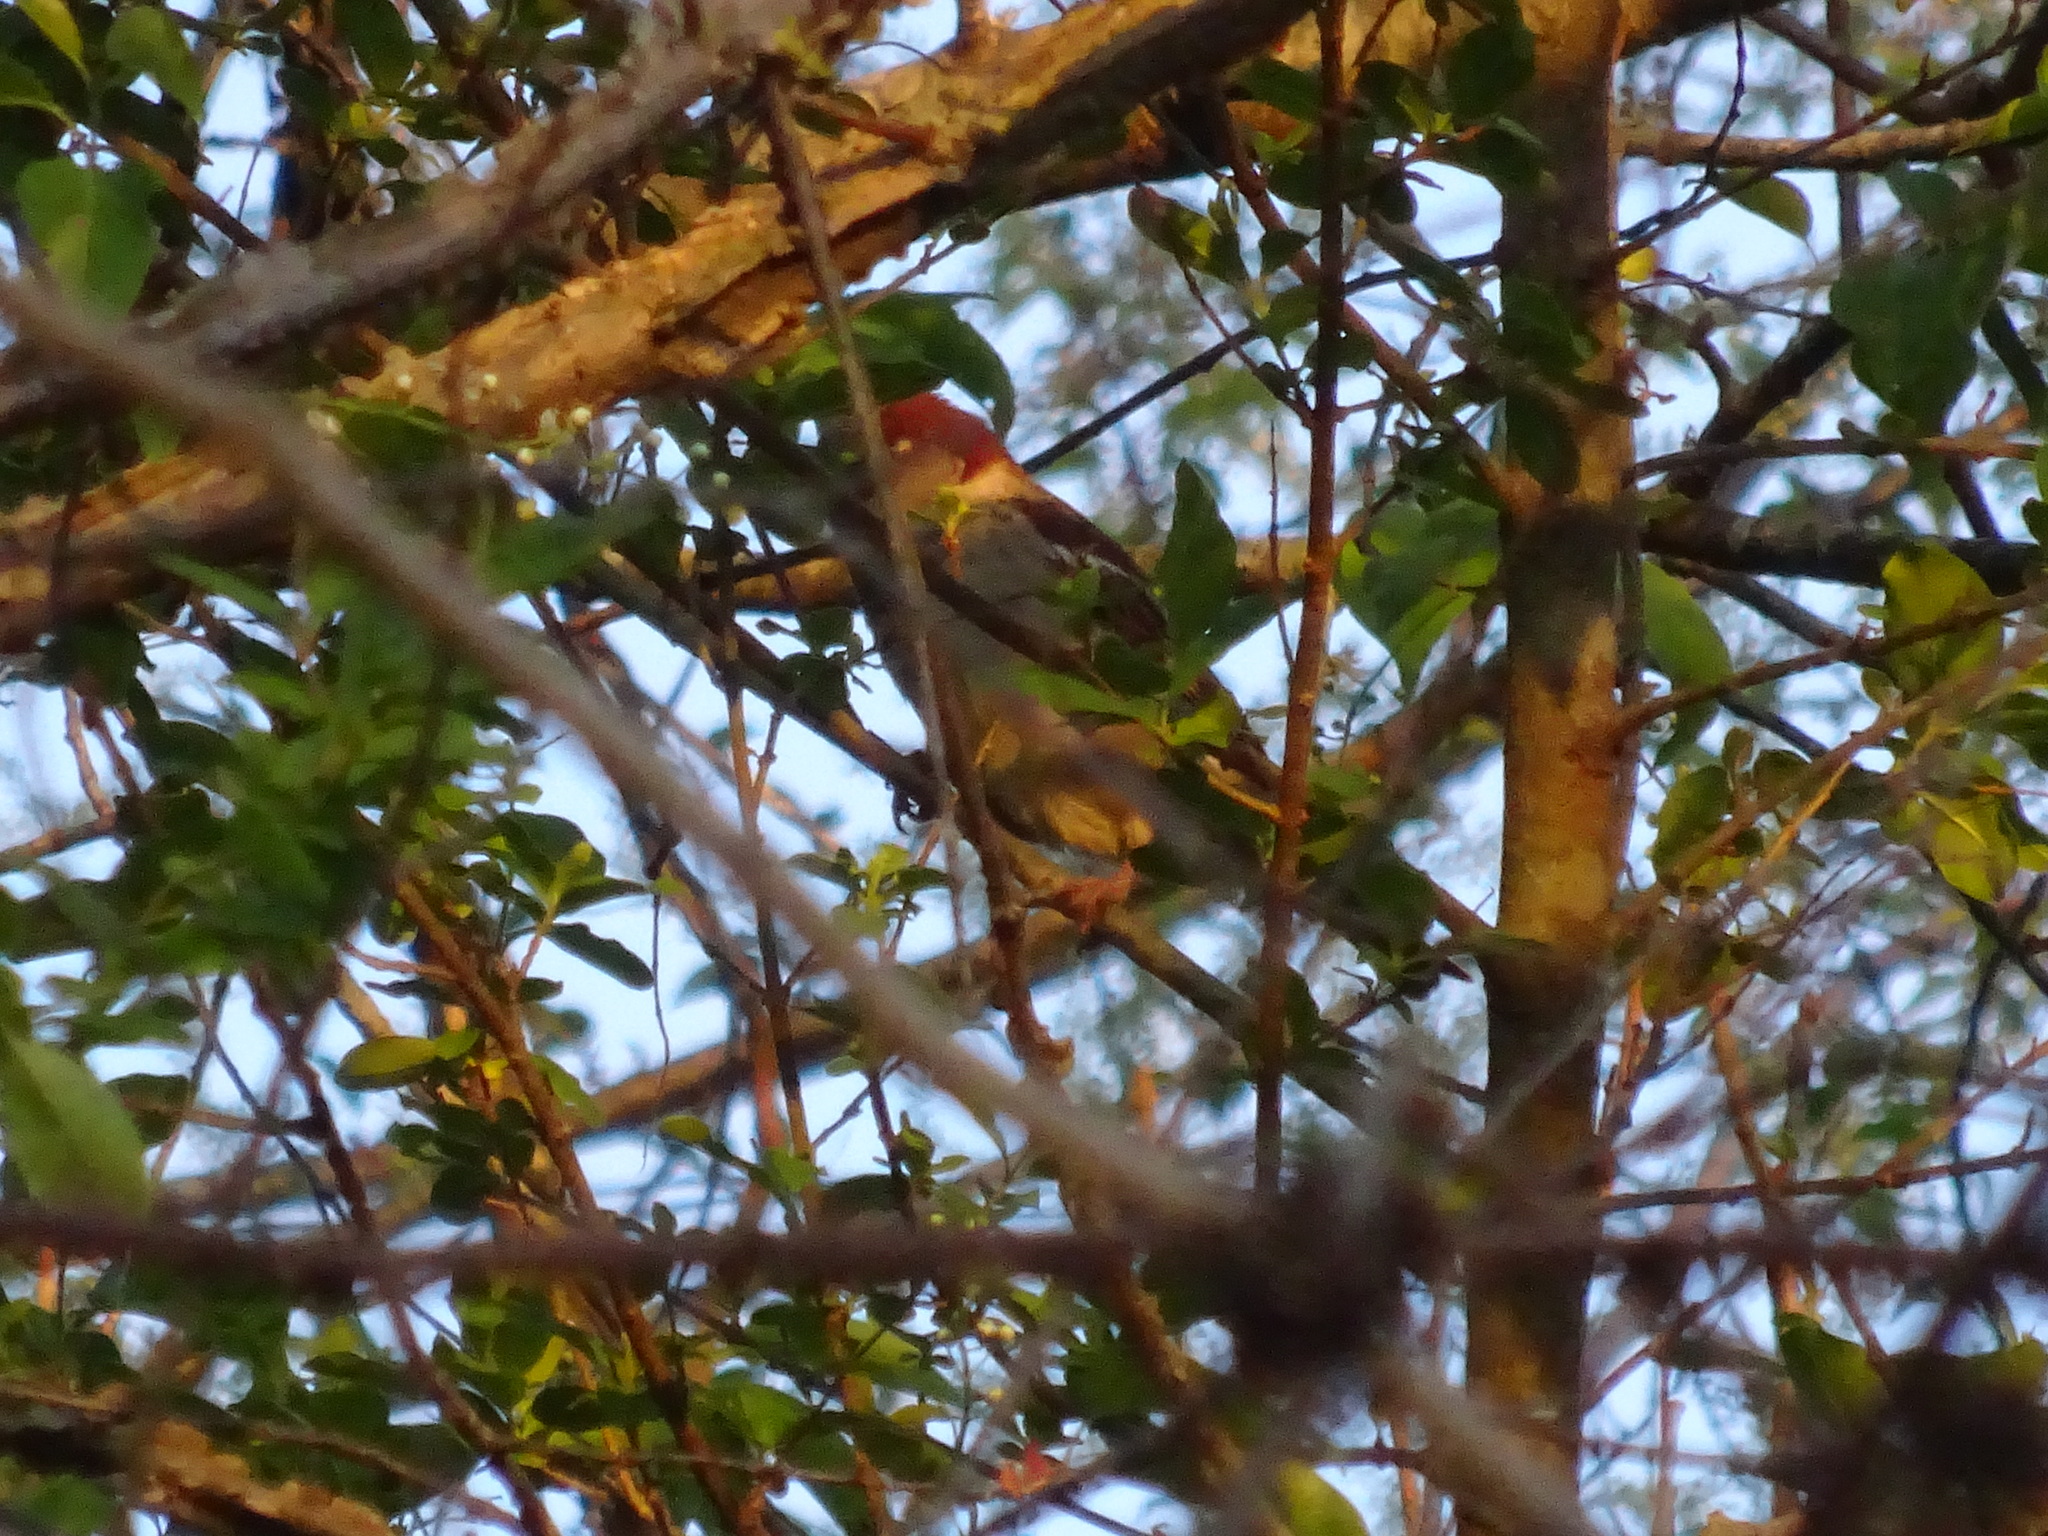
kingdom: Animalia
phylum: Chordata
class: Aves
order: Passeriformes
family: Passeridae
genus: Passer
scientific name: Passer domesticus
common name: House sparrow
